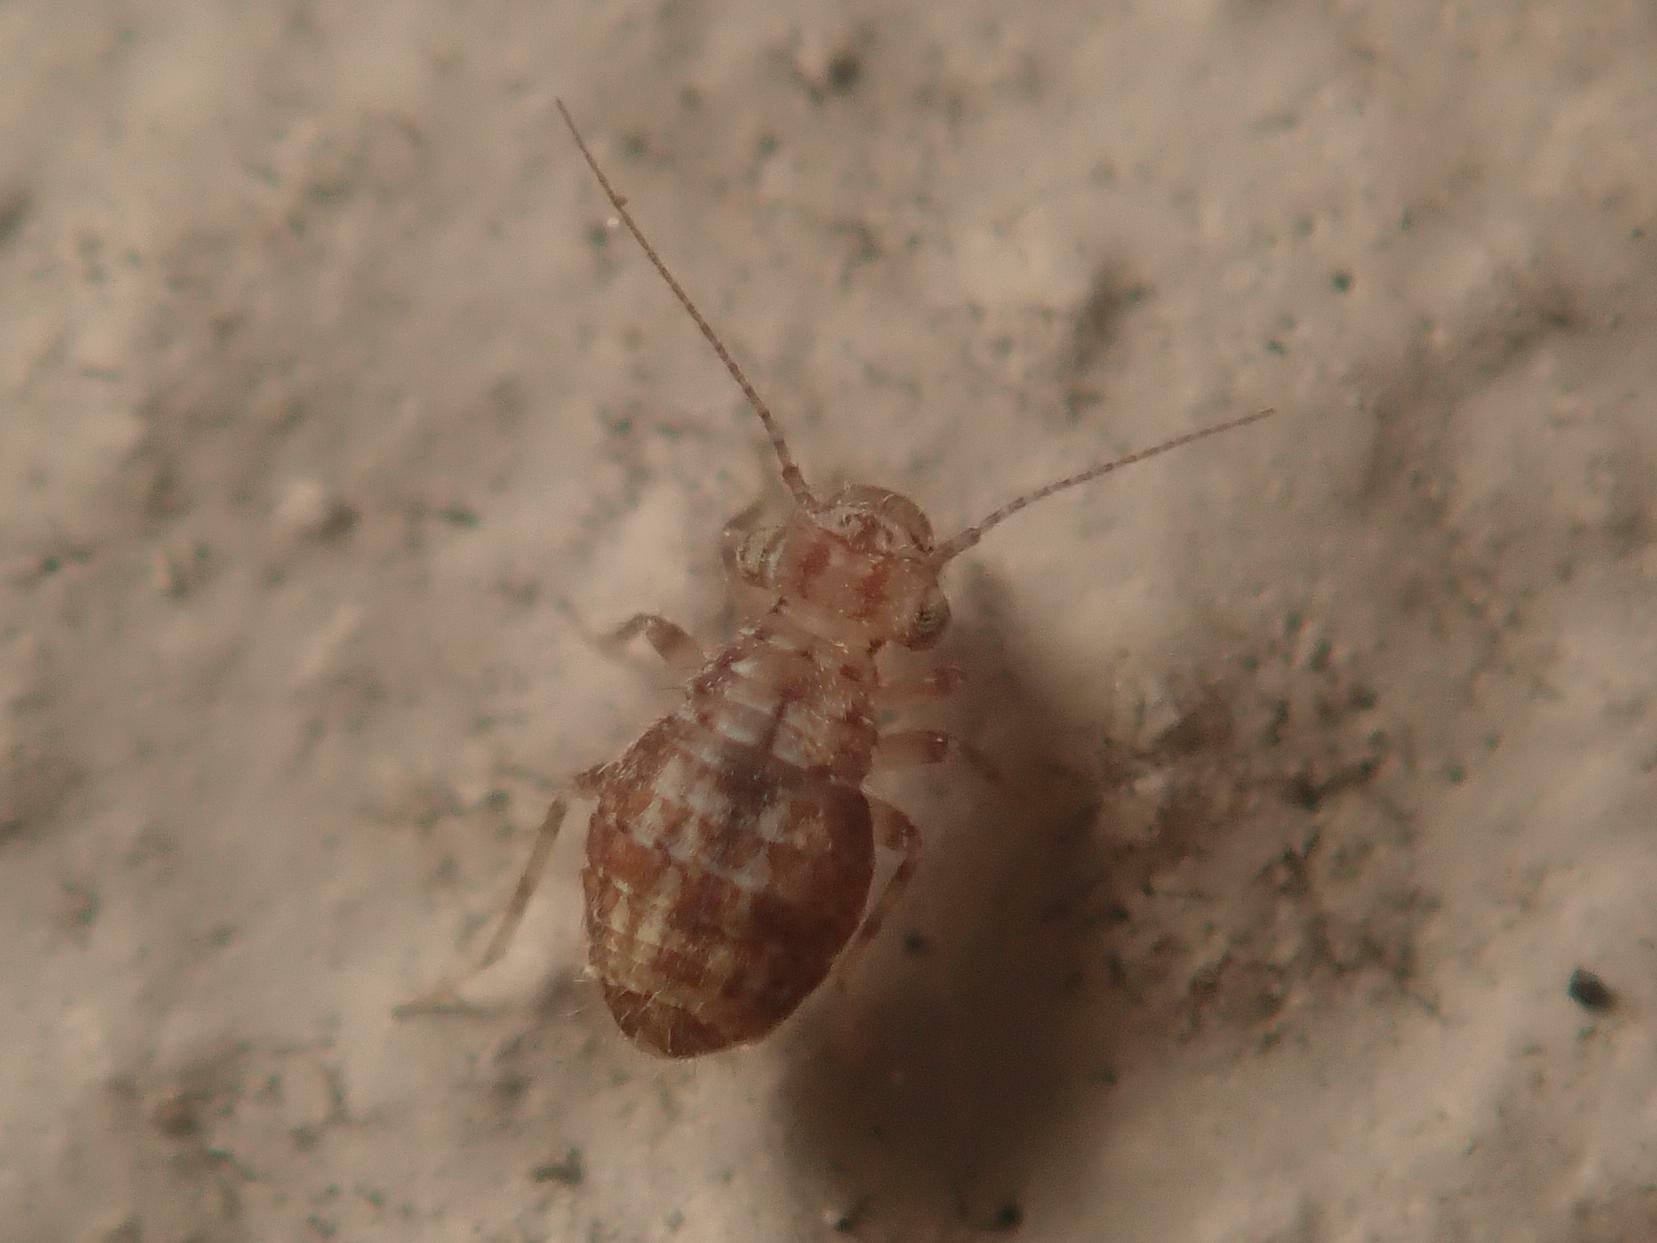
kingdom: Animalia
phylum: Arthropoda
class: Insecta
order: Psocodea
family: Trogiidae
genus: Cerobasis
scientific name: Cerobasis guestfalica
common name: Book lice
